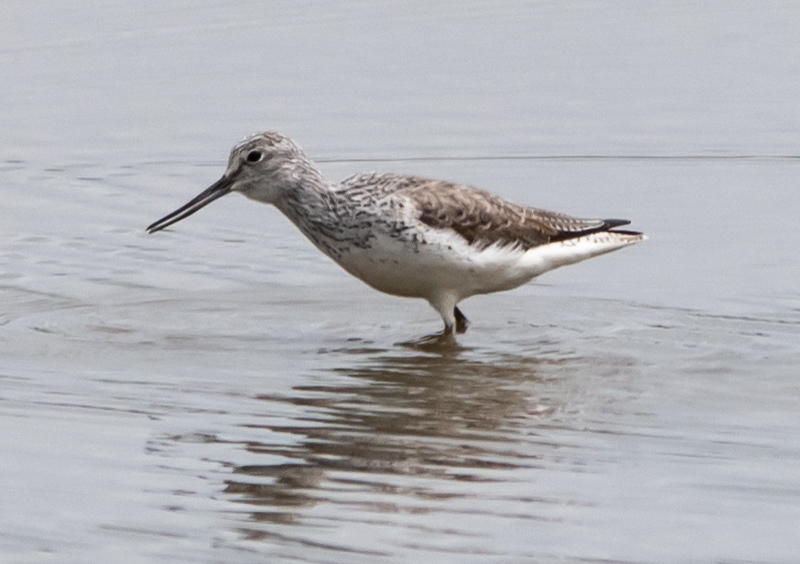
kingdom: Animalia
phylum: Chordata
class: Aves
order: Charadriiformes
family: Scolopacidae
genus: Tringa
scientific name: Tringa nebularia
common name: Common greenshank
